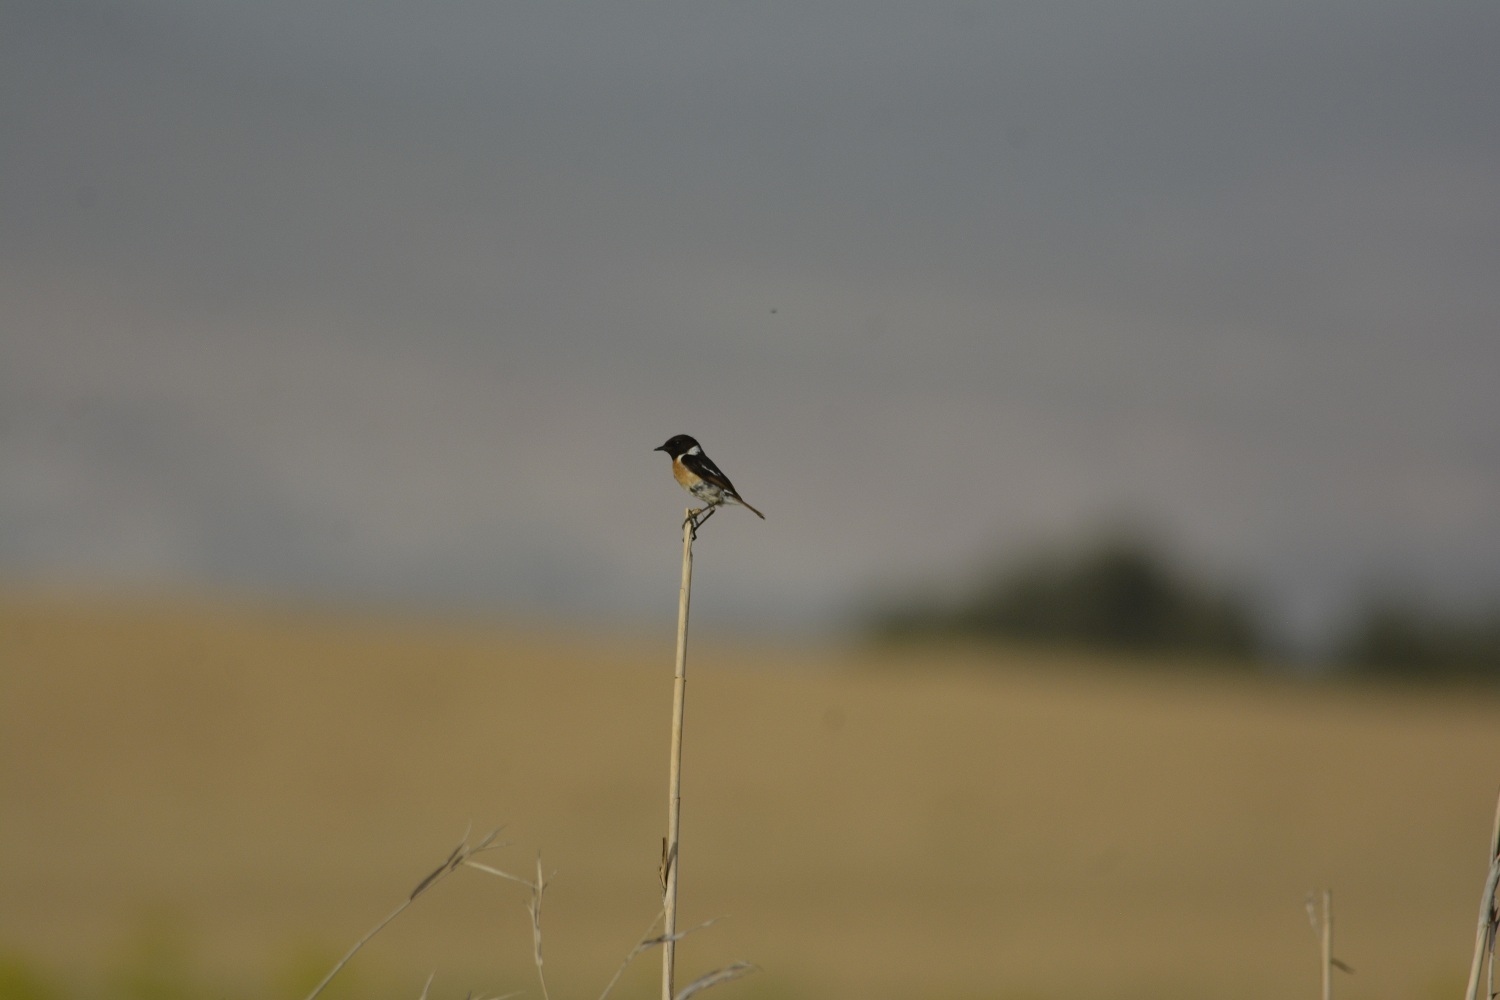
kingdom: Animalia
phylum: Chordata
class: Aves
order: Passeriformes
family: Muscicapidae
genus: Saxicola
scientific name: Saxicola rubicola
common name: European stonechat
